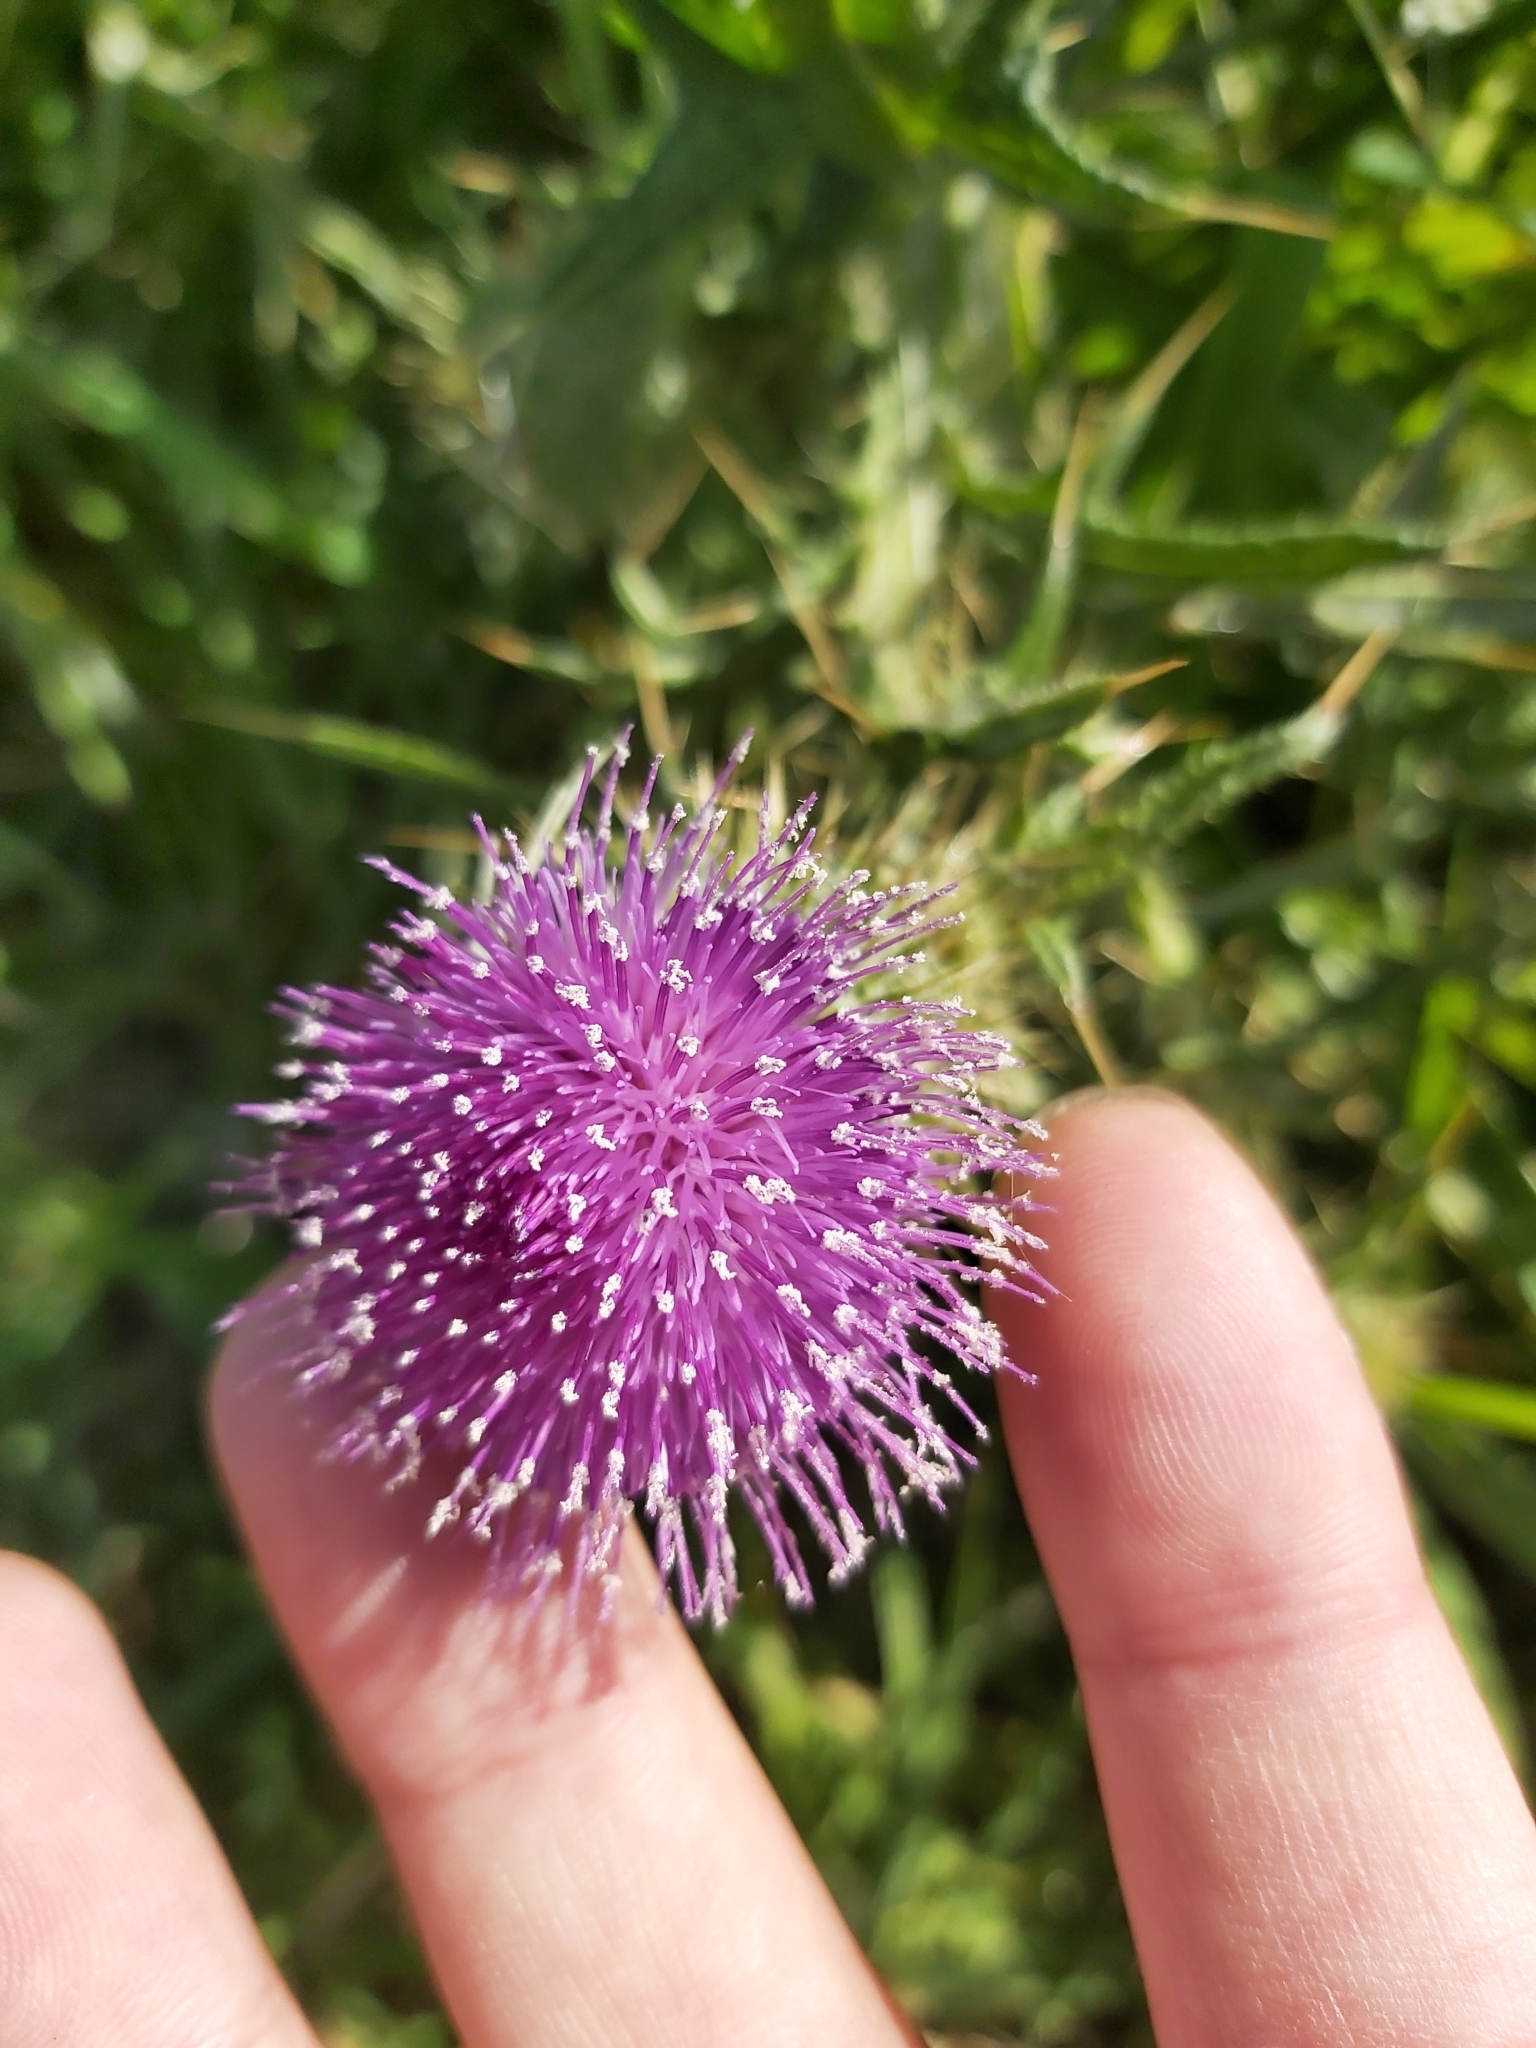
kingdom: Plantae
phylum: Tracheophyta
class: Magnoliopsida
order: Asterales
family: Asteraceae
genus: Cirsium
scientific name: Cirsium vulgare
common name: Bull thistle
